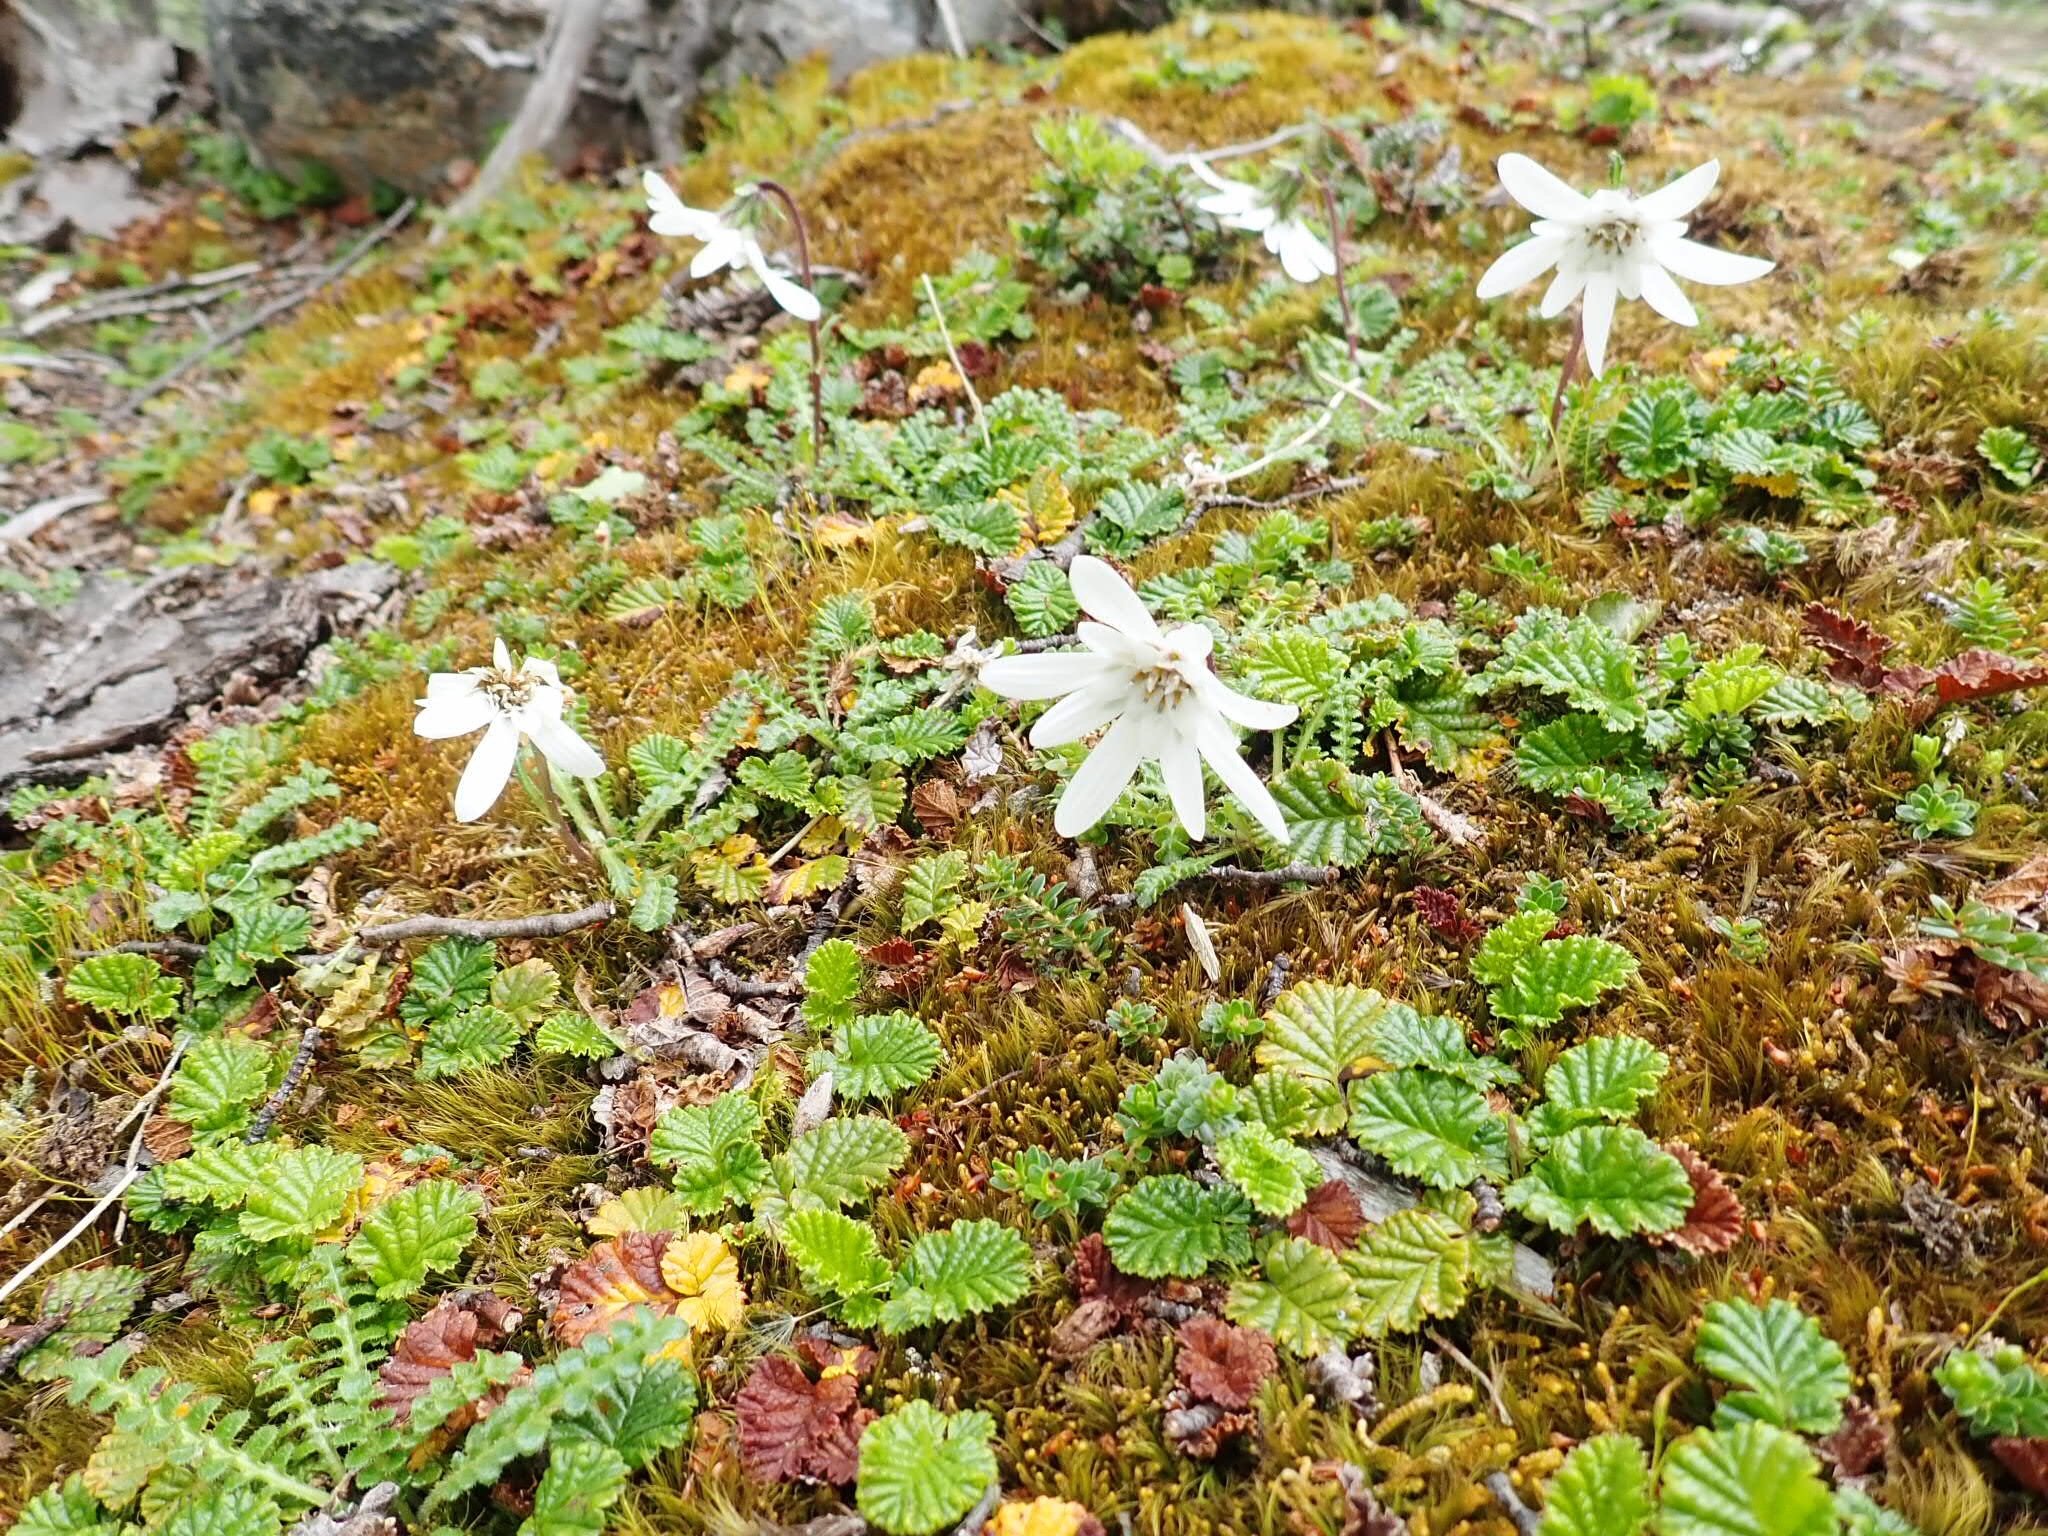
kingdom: Plantae
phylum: Tracheophyta
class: Magnoliopsida
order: Asterales
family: Asteraceae
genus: Perezia
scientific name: Perezia magellanica
